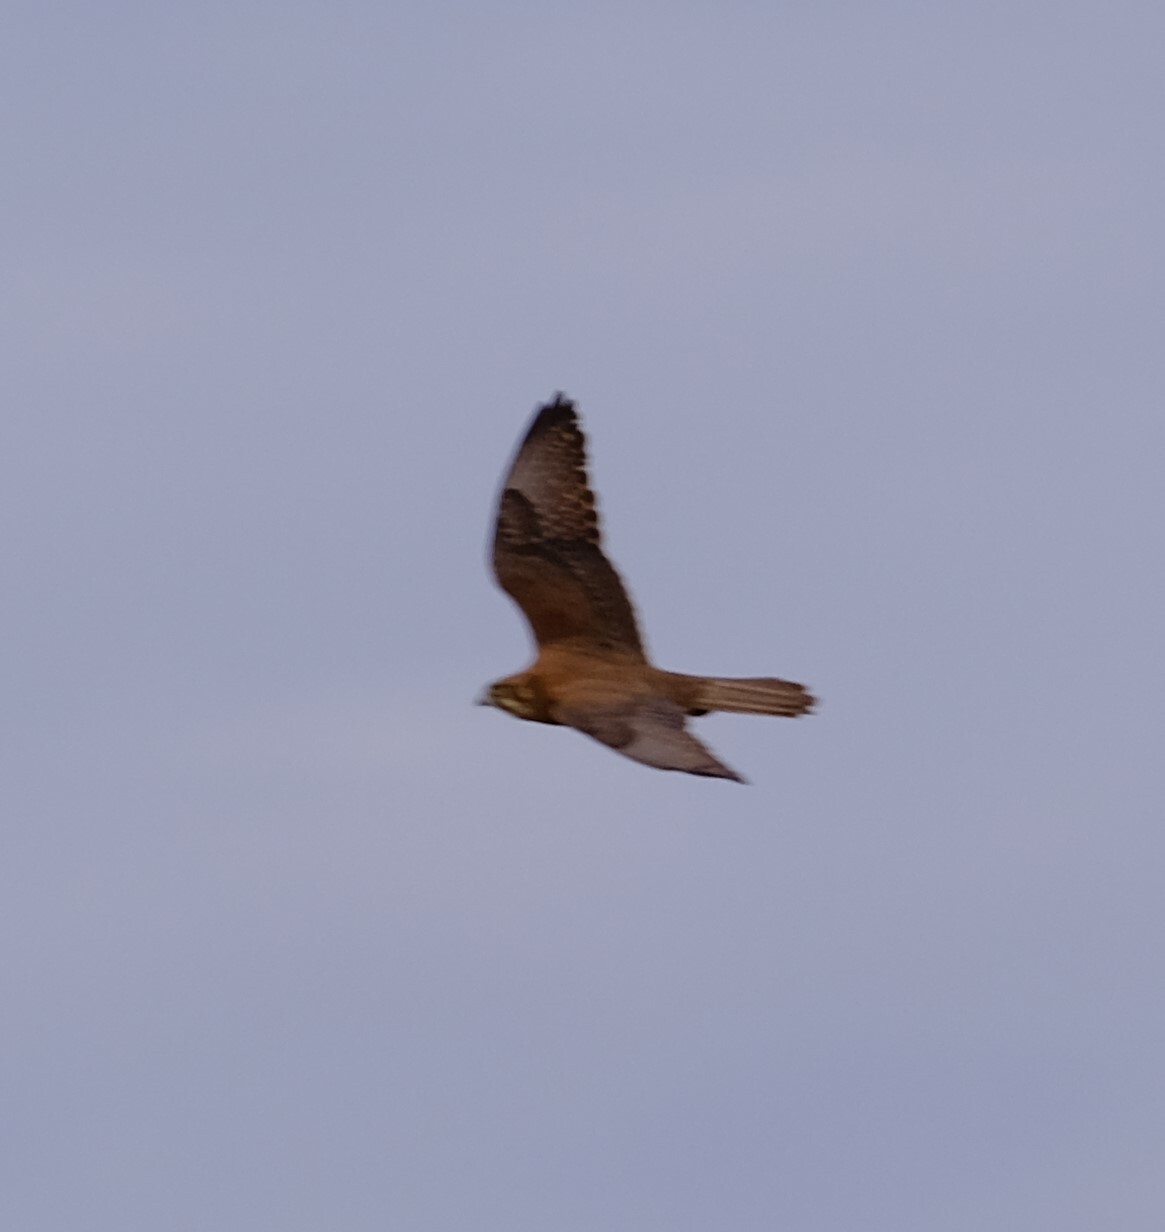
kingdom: Animalia
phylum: Chordata
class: Aves
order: Falconiformes
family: Falconidae
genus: Falco
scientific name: Falco berigora
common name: Brown falcon
